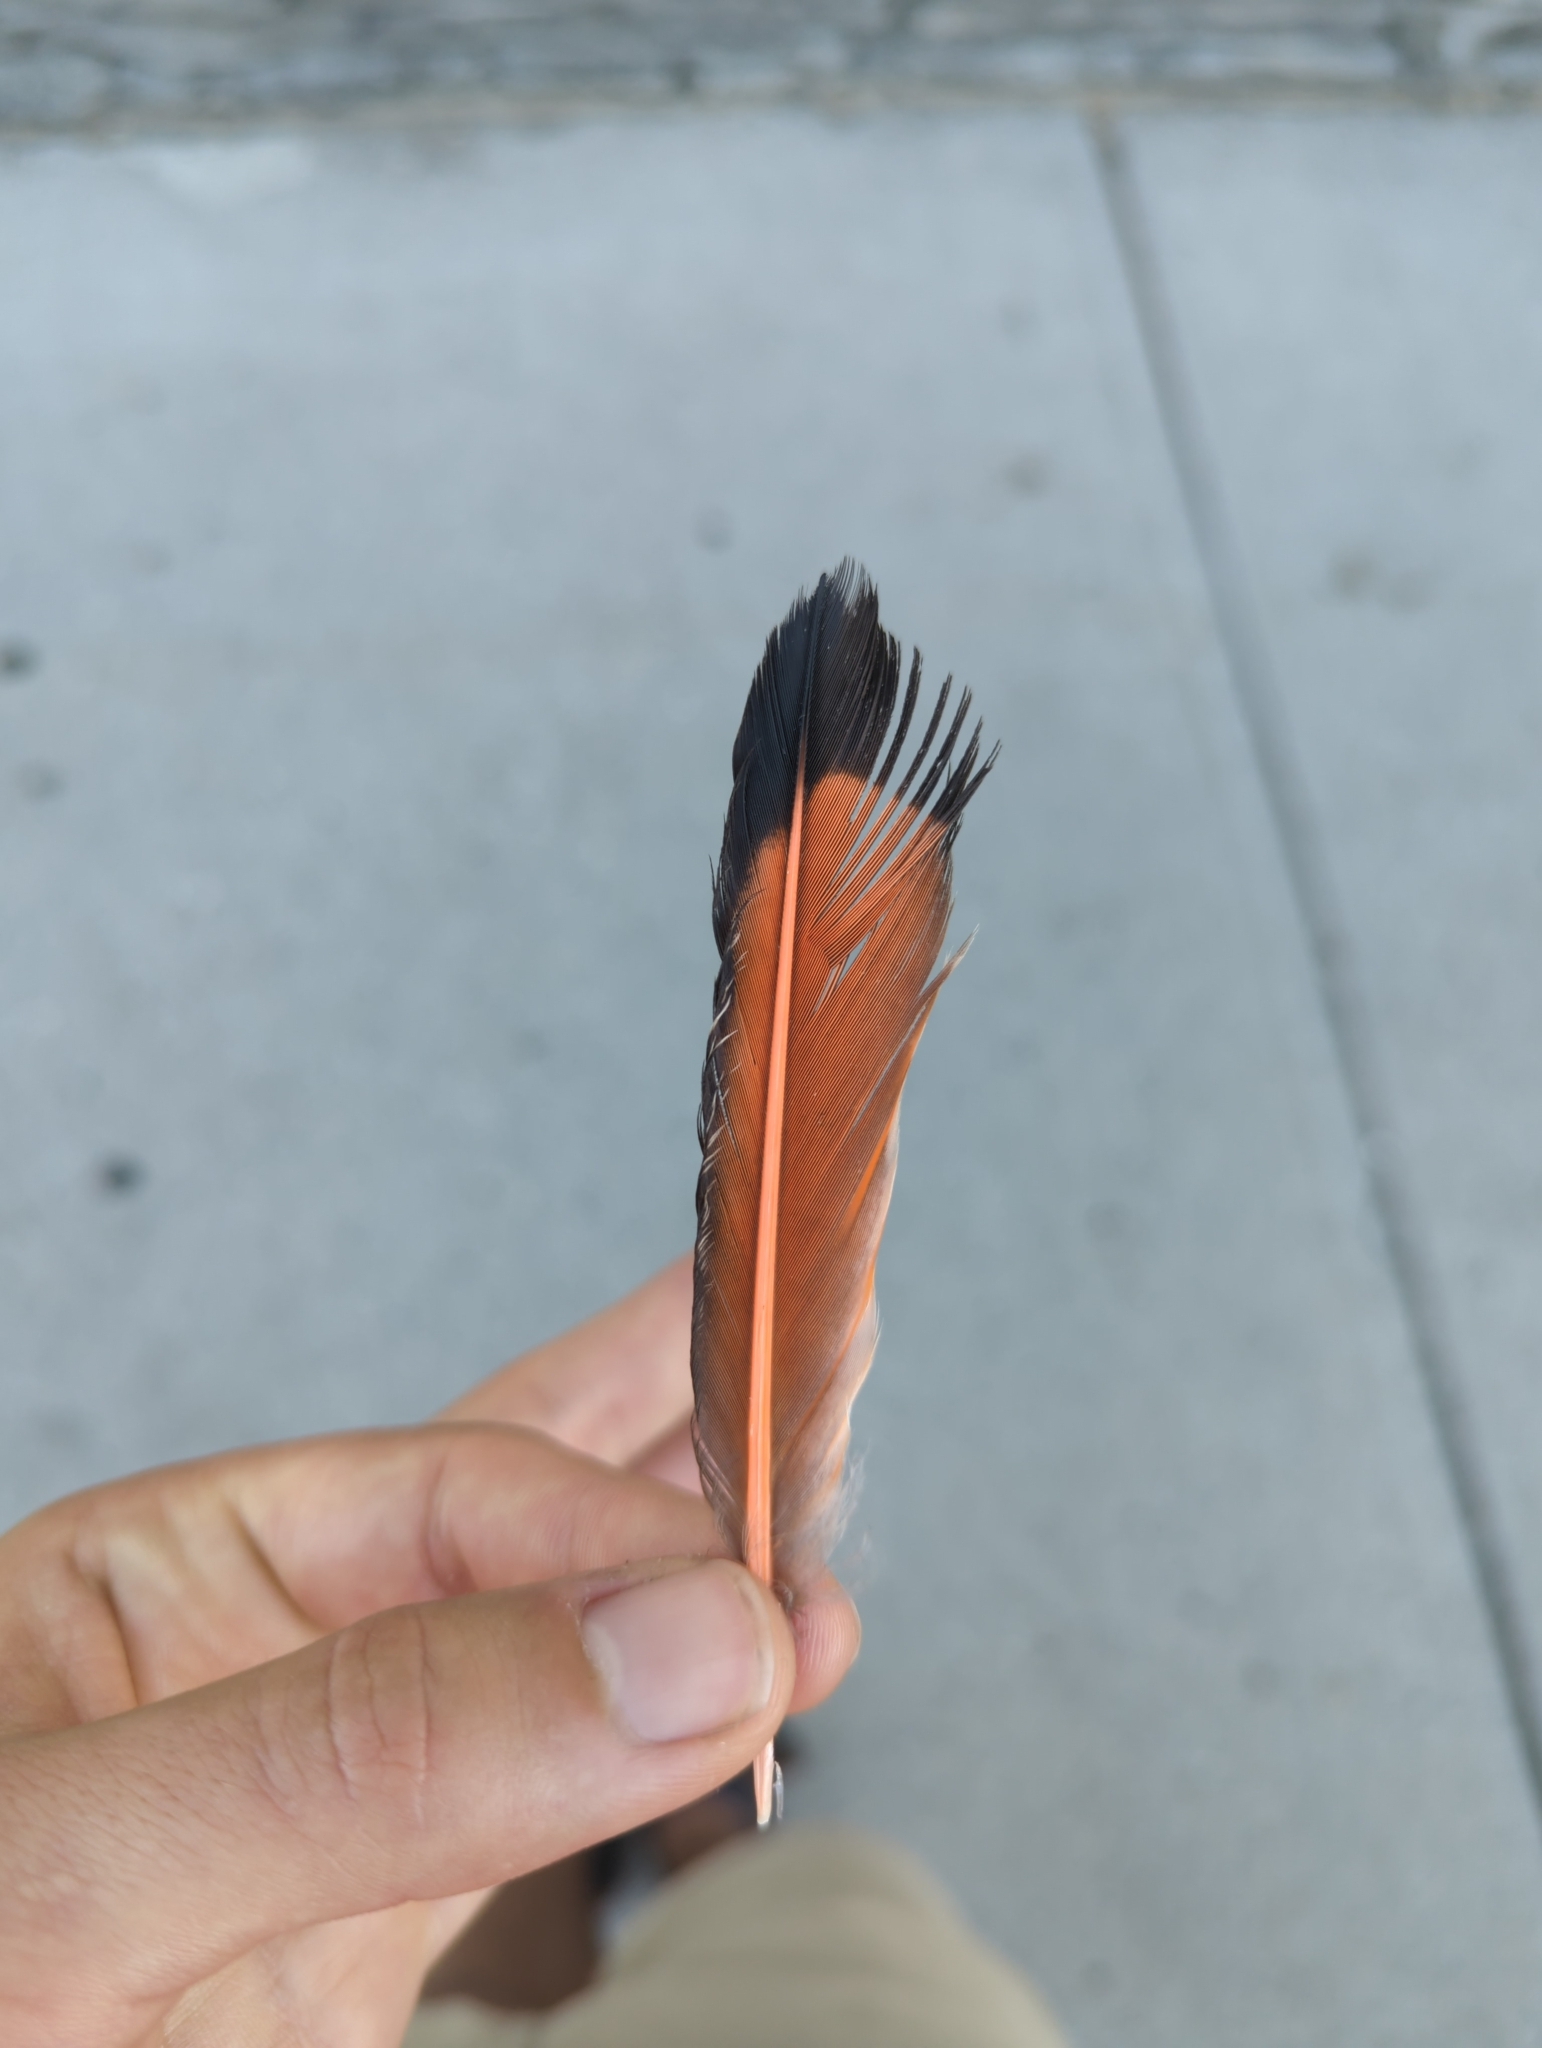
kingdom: Animalia
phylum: Chordata
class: Aves
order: Piciformes
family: Picidae
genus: Colaptes
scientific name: Colaptes auratus
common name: Northern flicker
